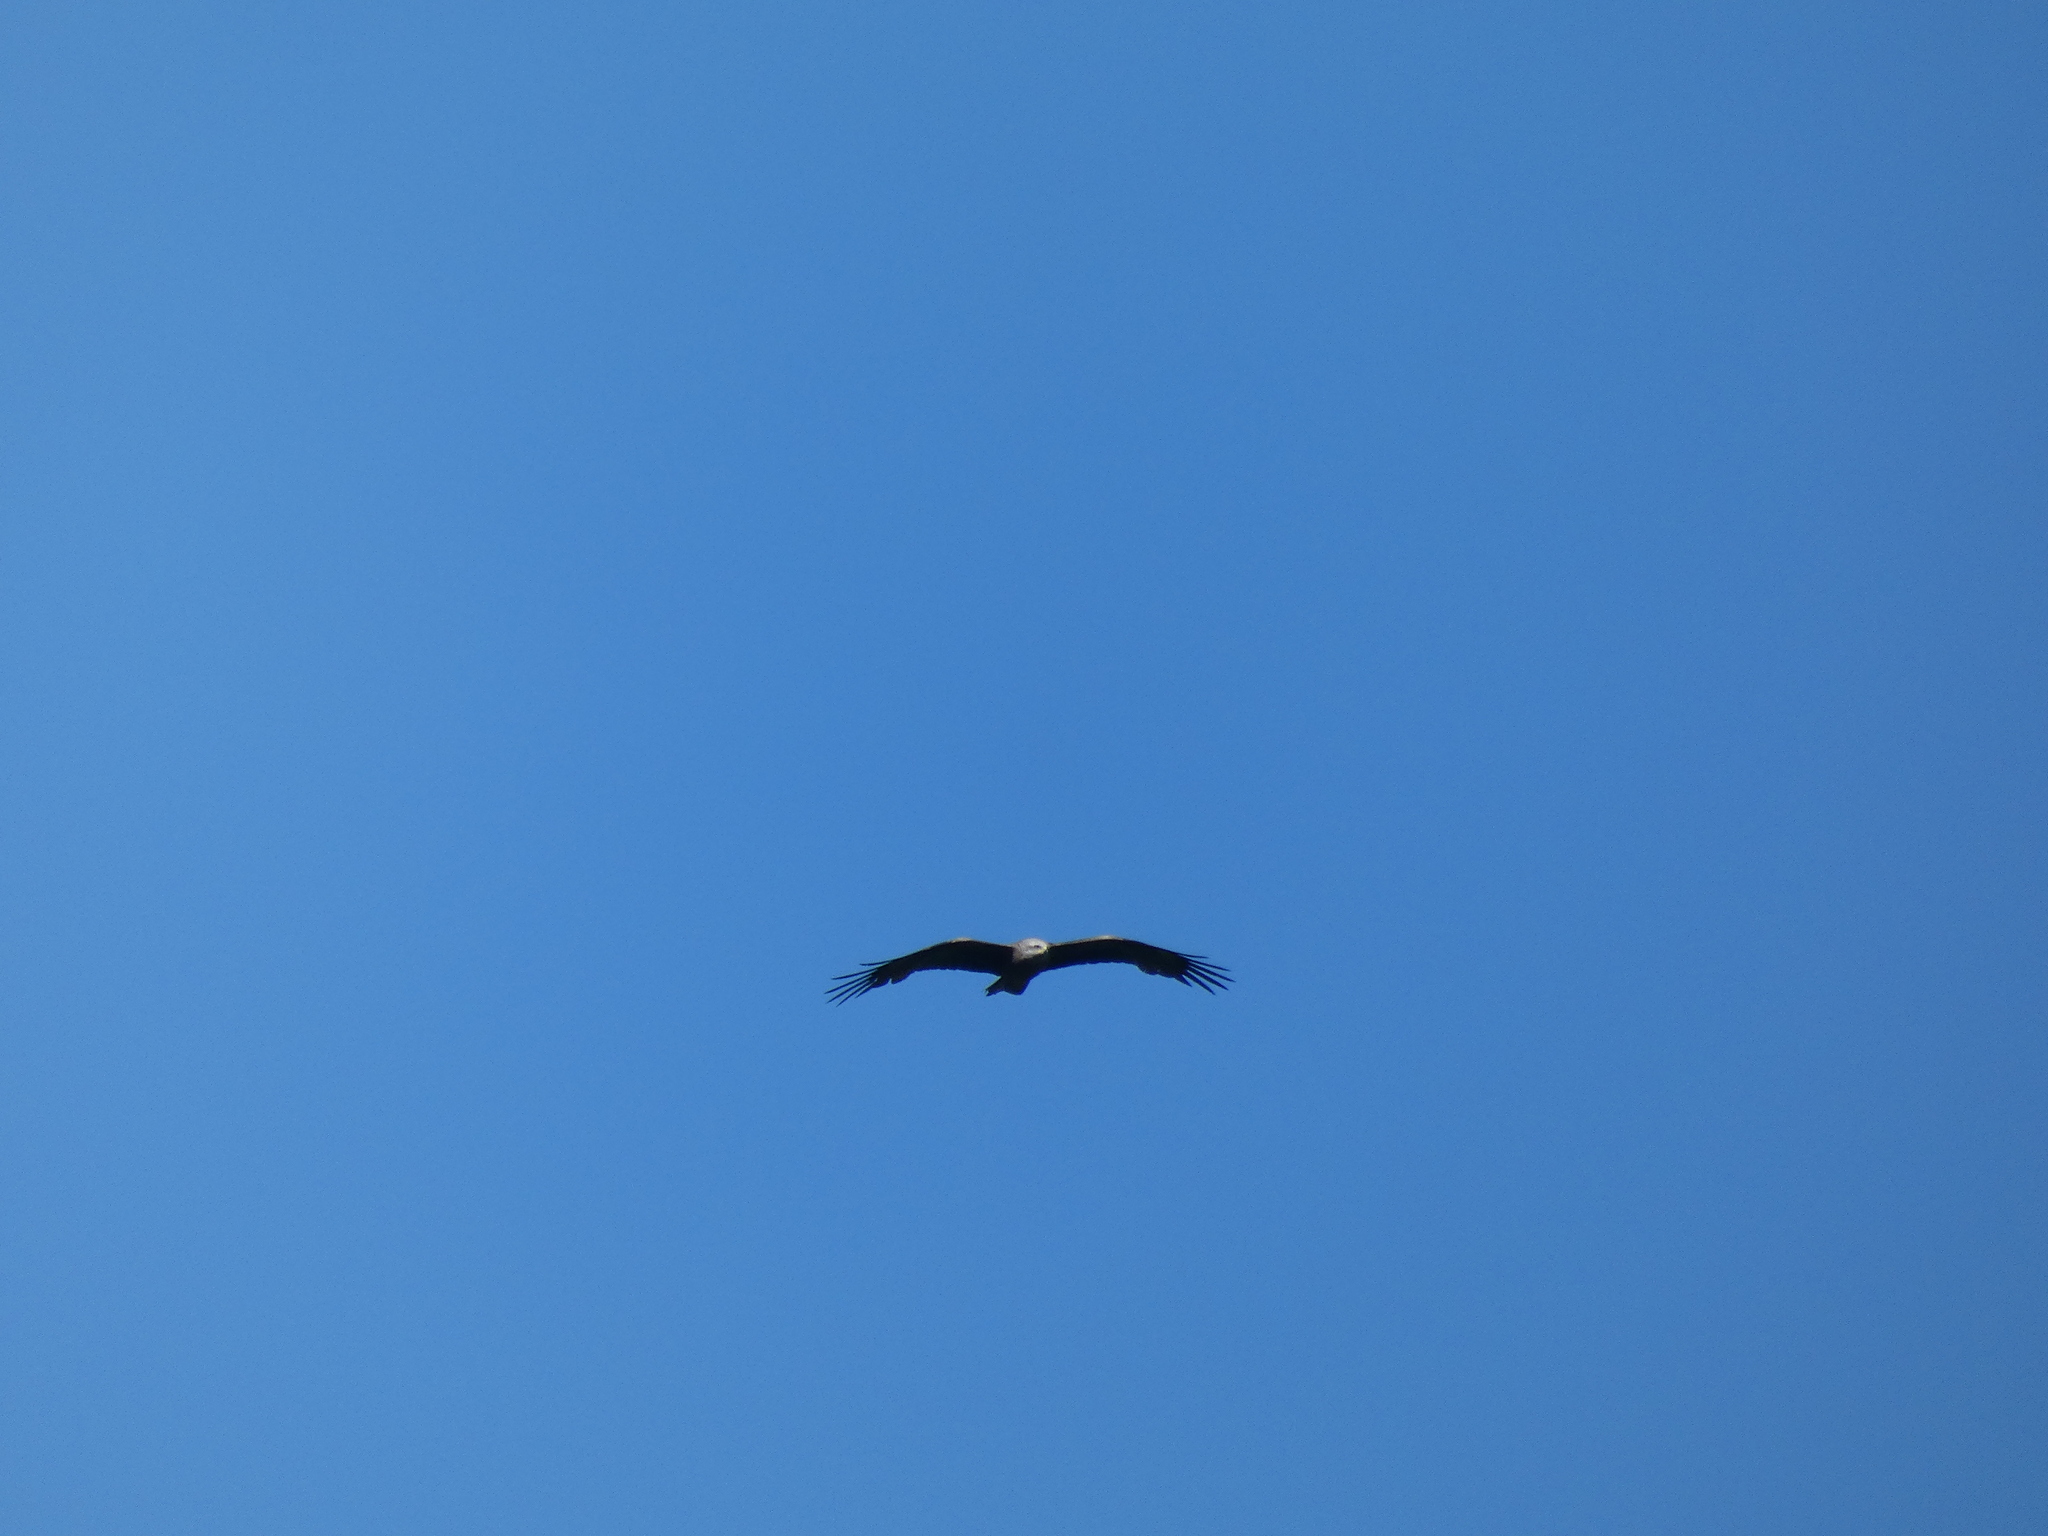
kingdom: Animalia
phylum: Chordata
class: Aves
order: Accipitriformes
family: Accipitridae
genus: Milvus
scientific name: Milvus migrans
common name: Black kite
